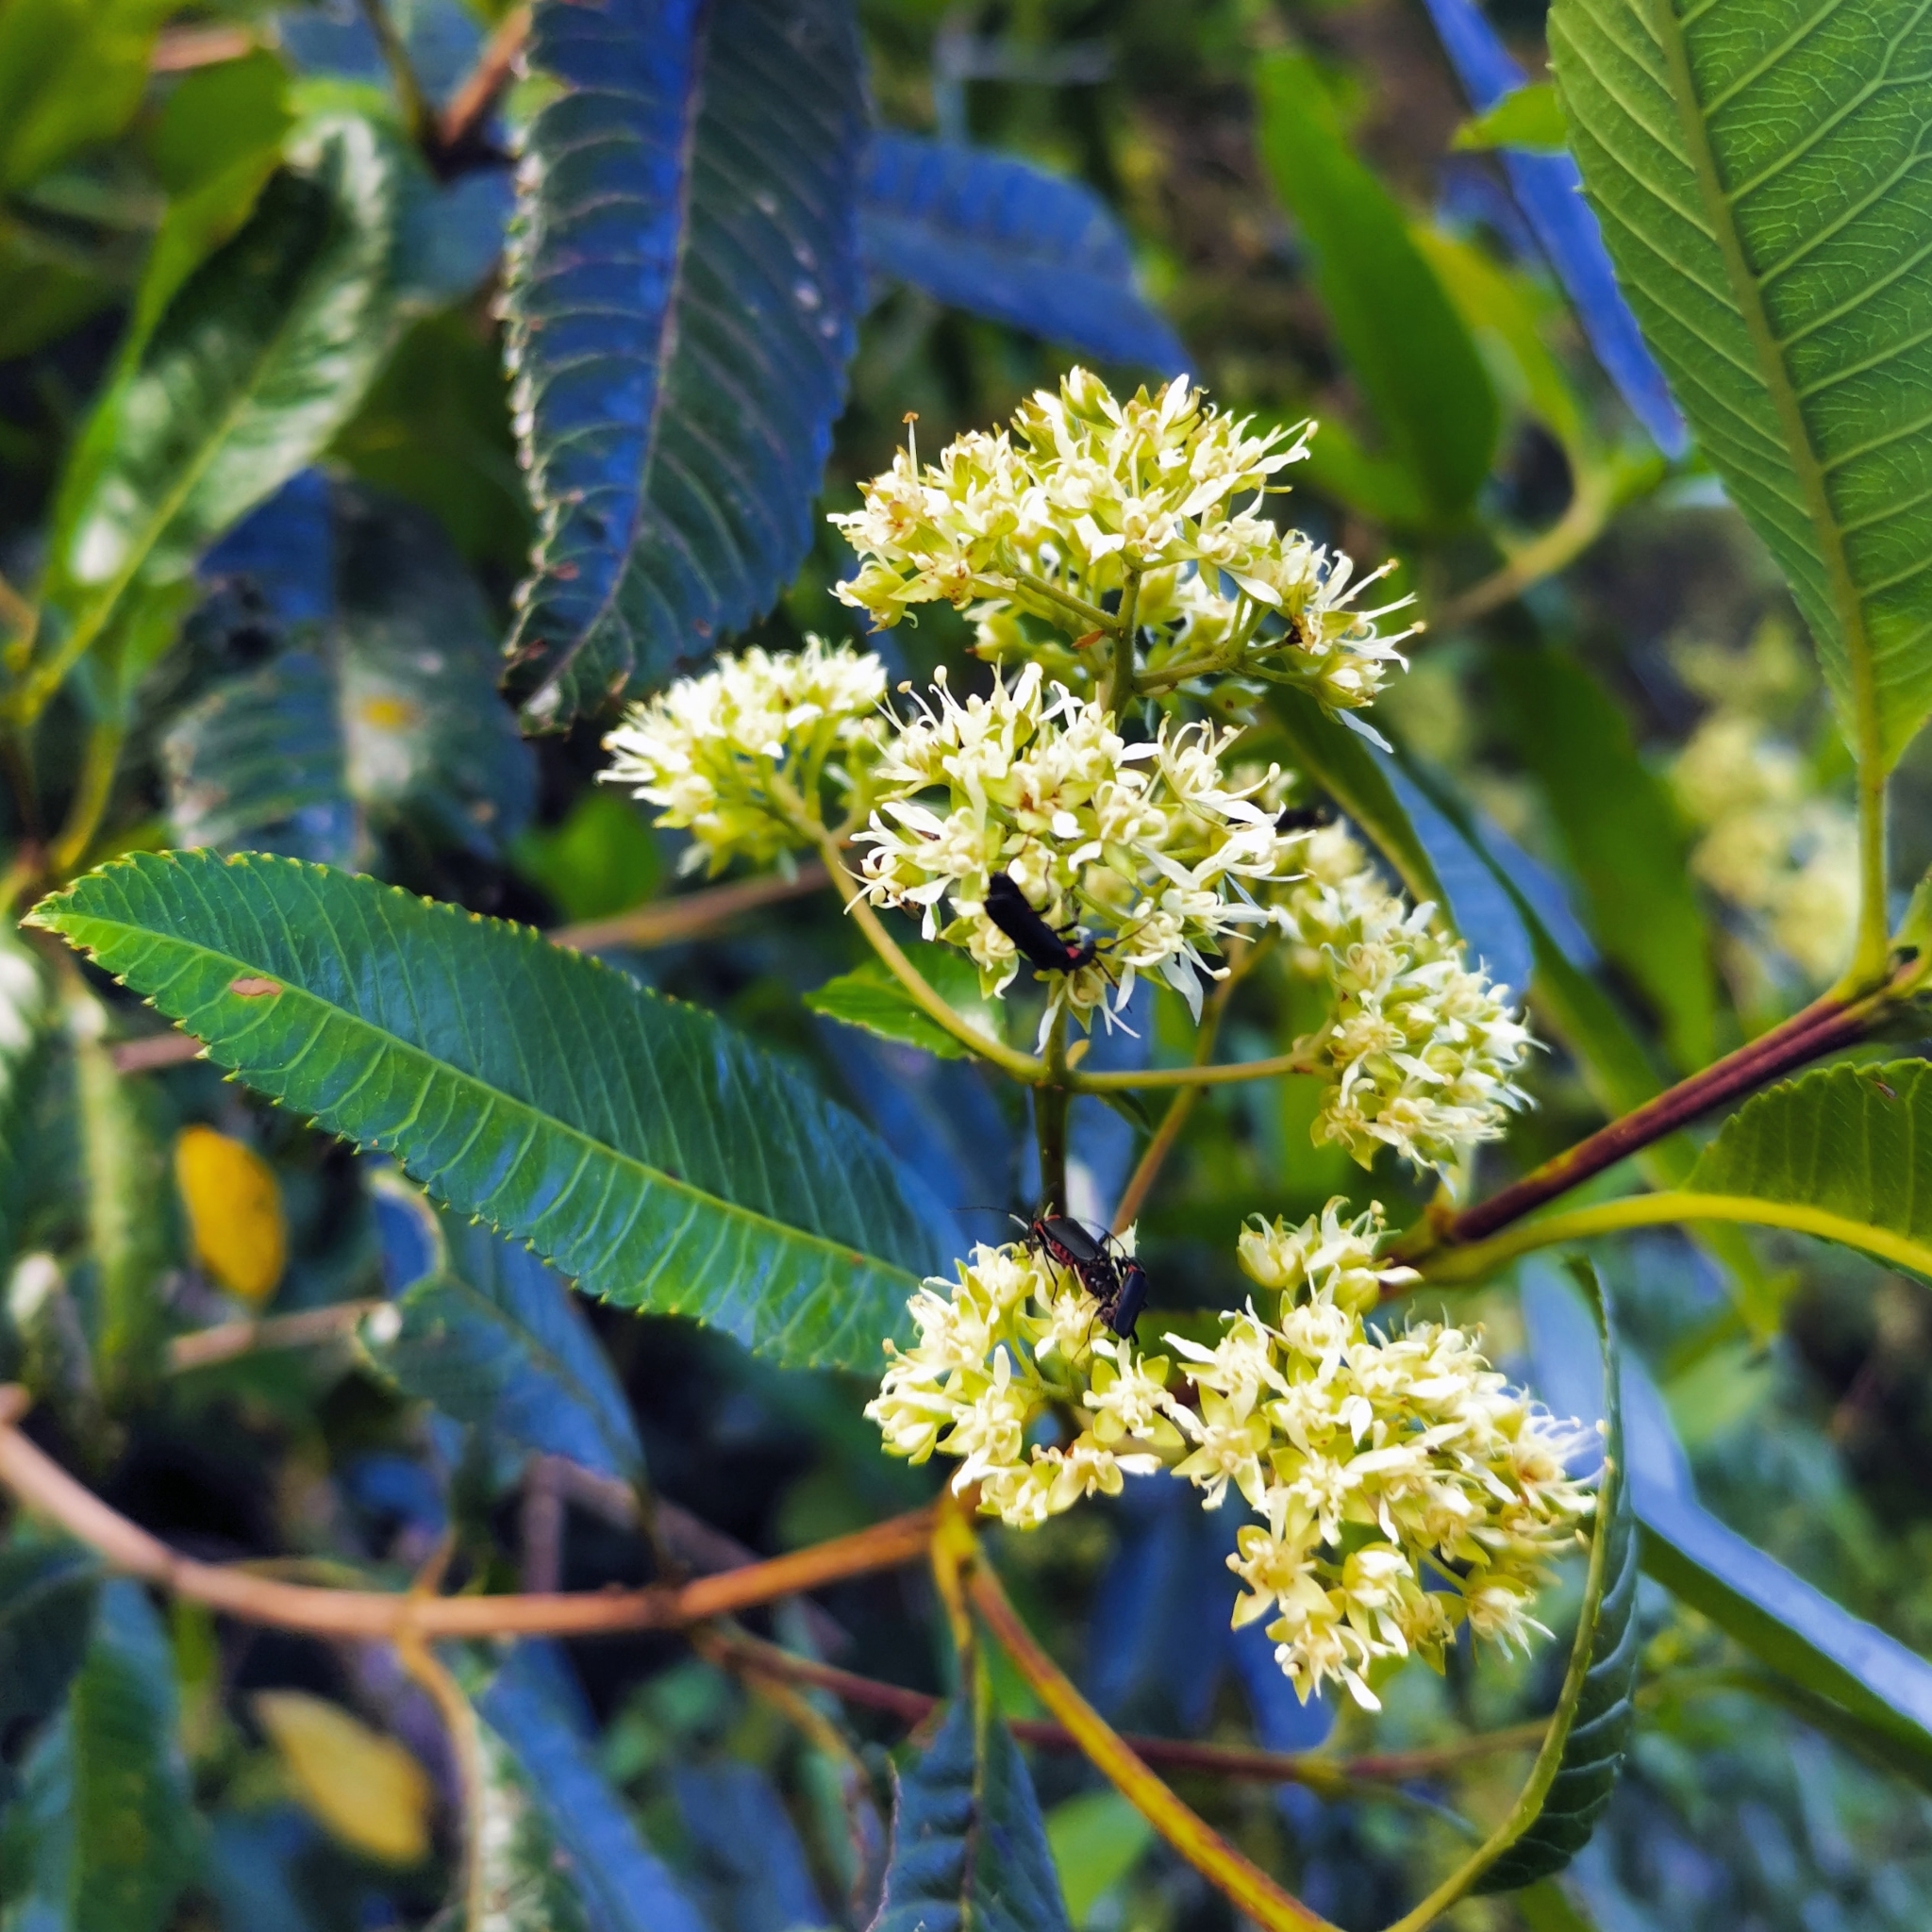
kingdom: Plantae
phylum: Tracheophyta
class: Magnoliopsida
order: Oxalidales
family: Cunoniaceae
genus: Caldcluvia
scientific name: Caldcluvia paniculata
